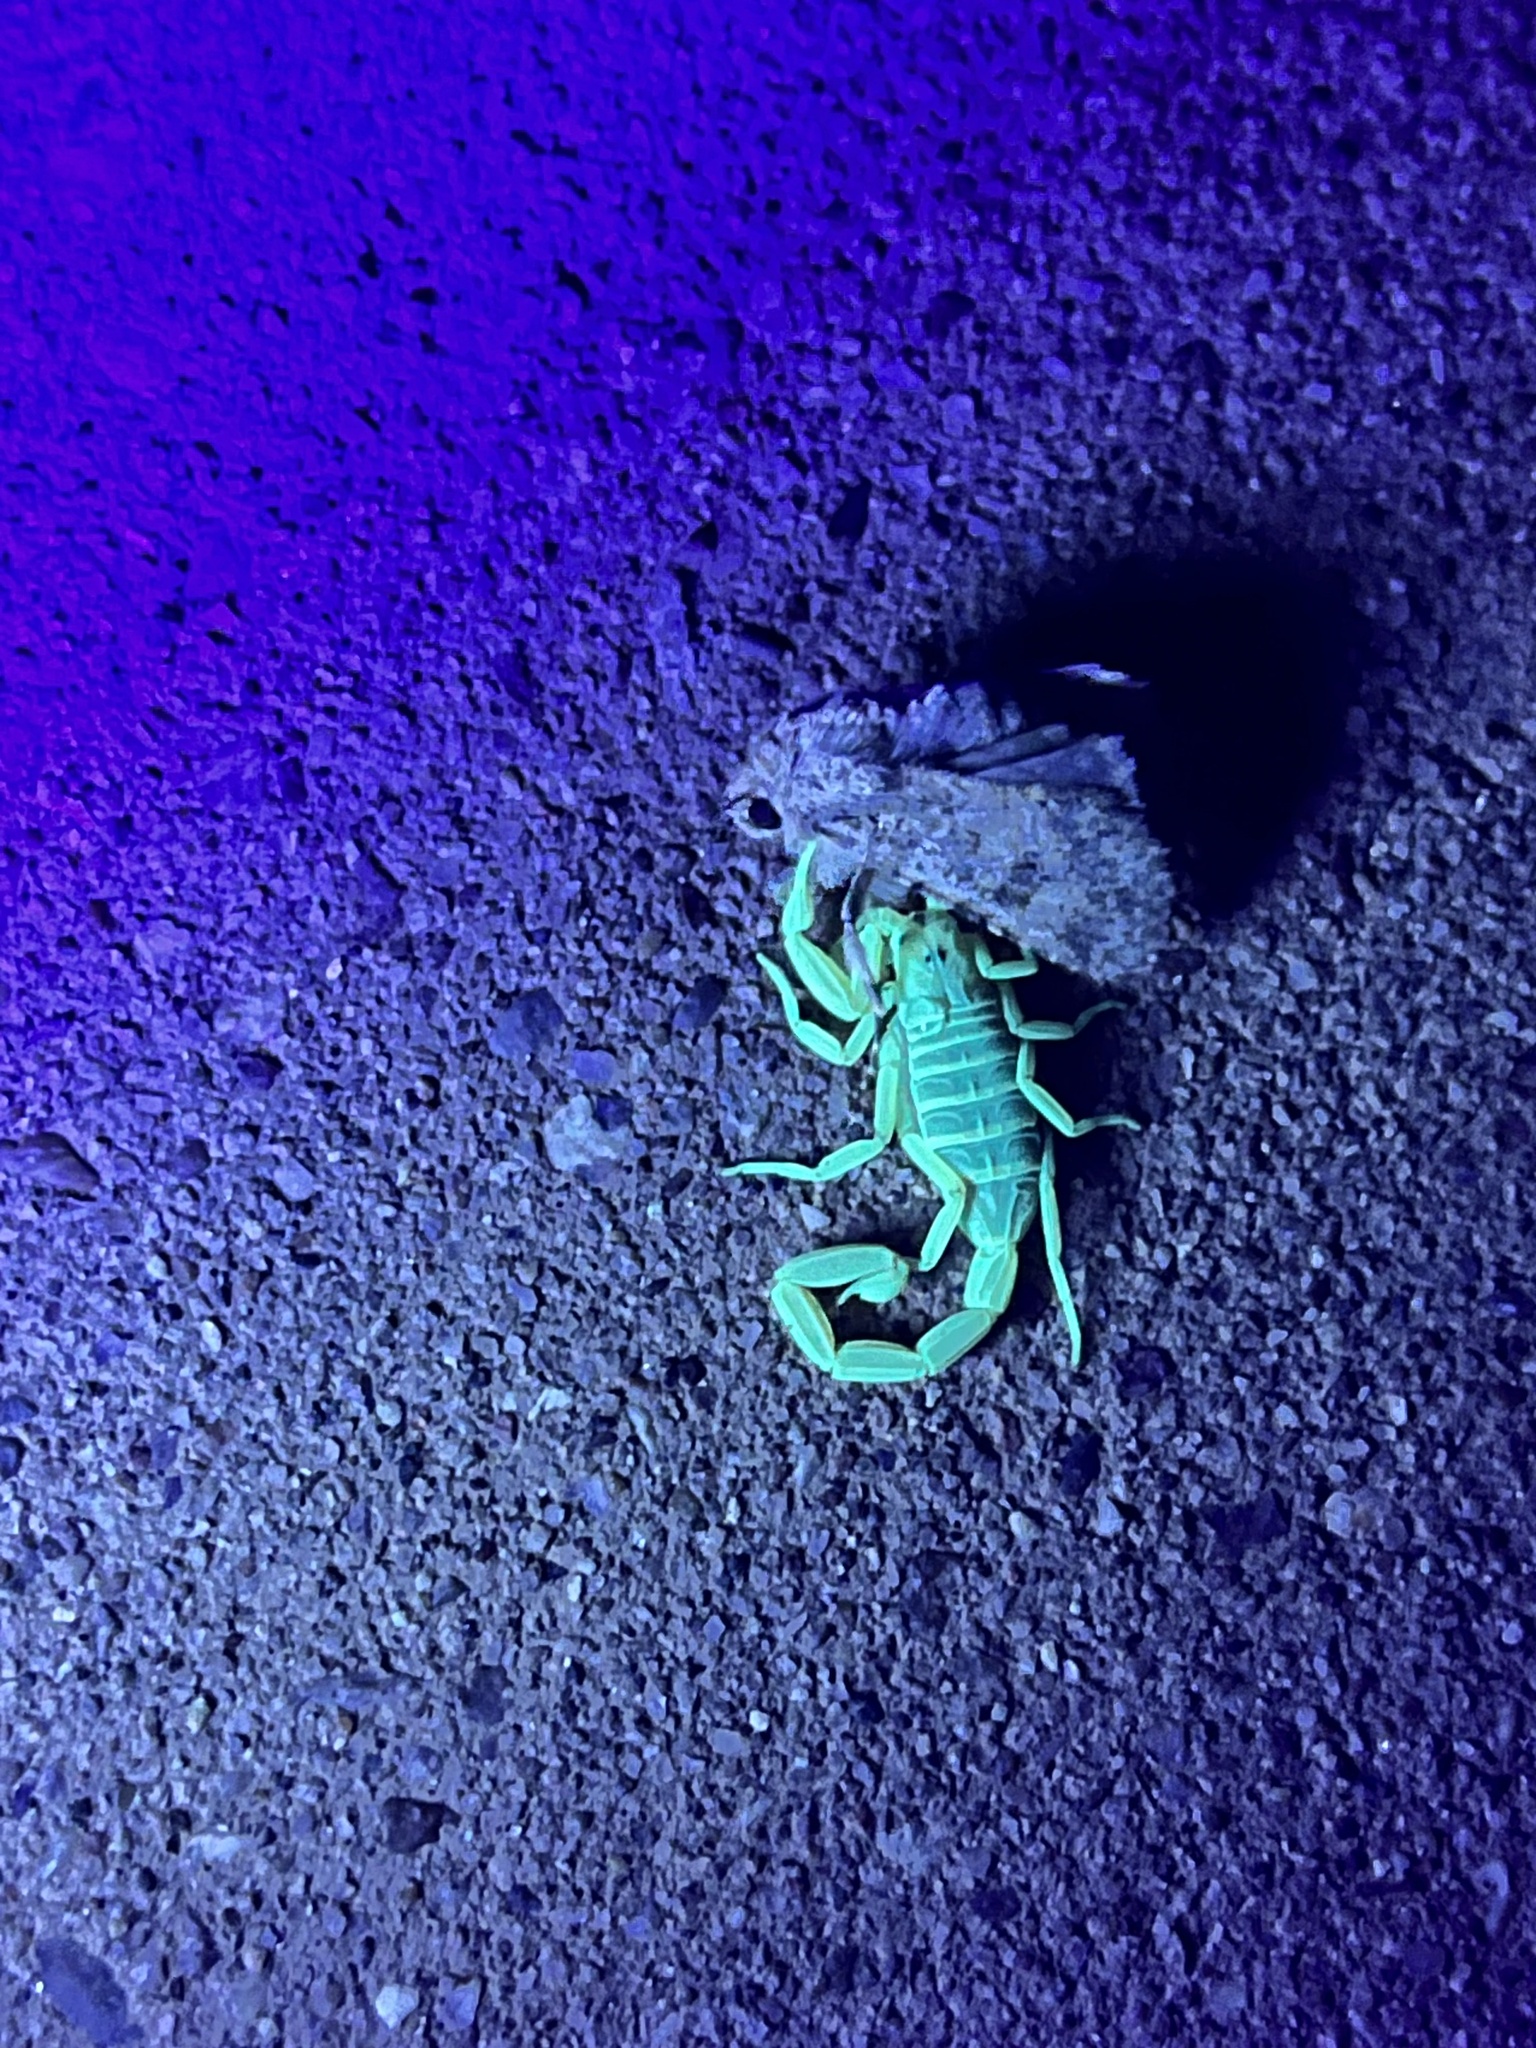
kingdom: Animalia
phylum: Arthropoda
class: Arachnida
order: Scorpiones
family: Buthidae
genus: Centruroides
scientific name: Centruroides sculpturatus
